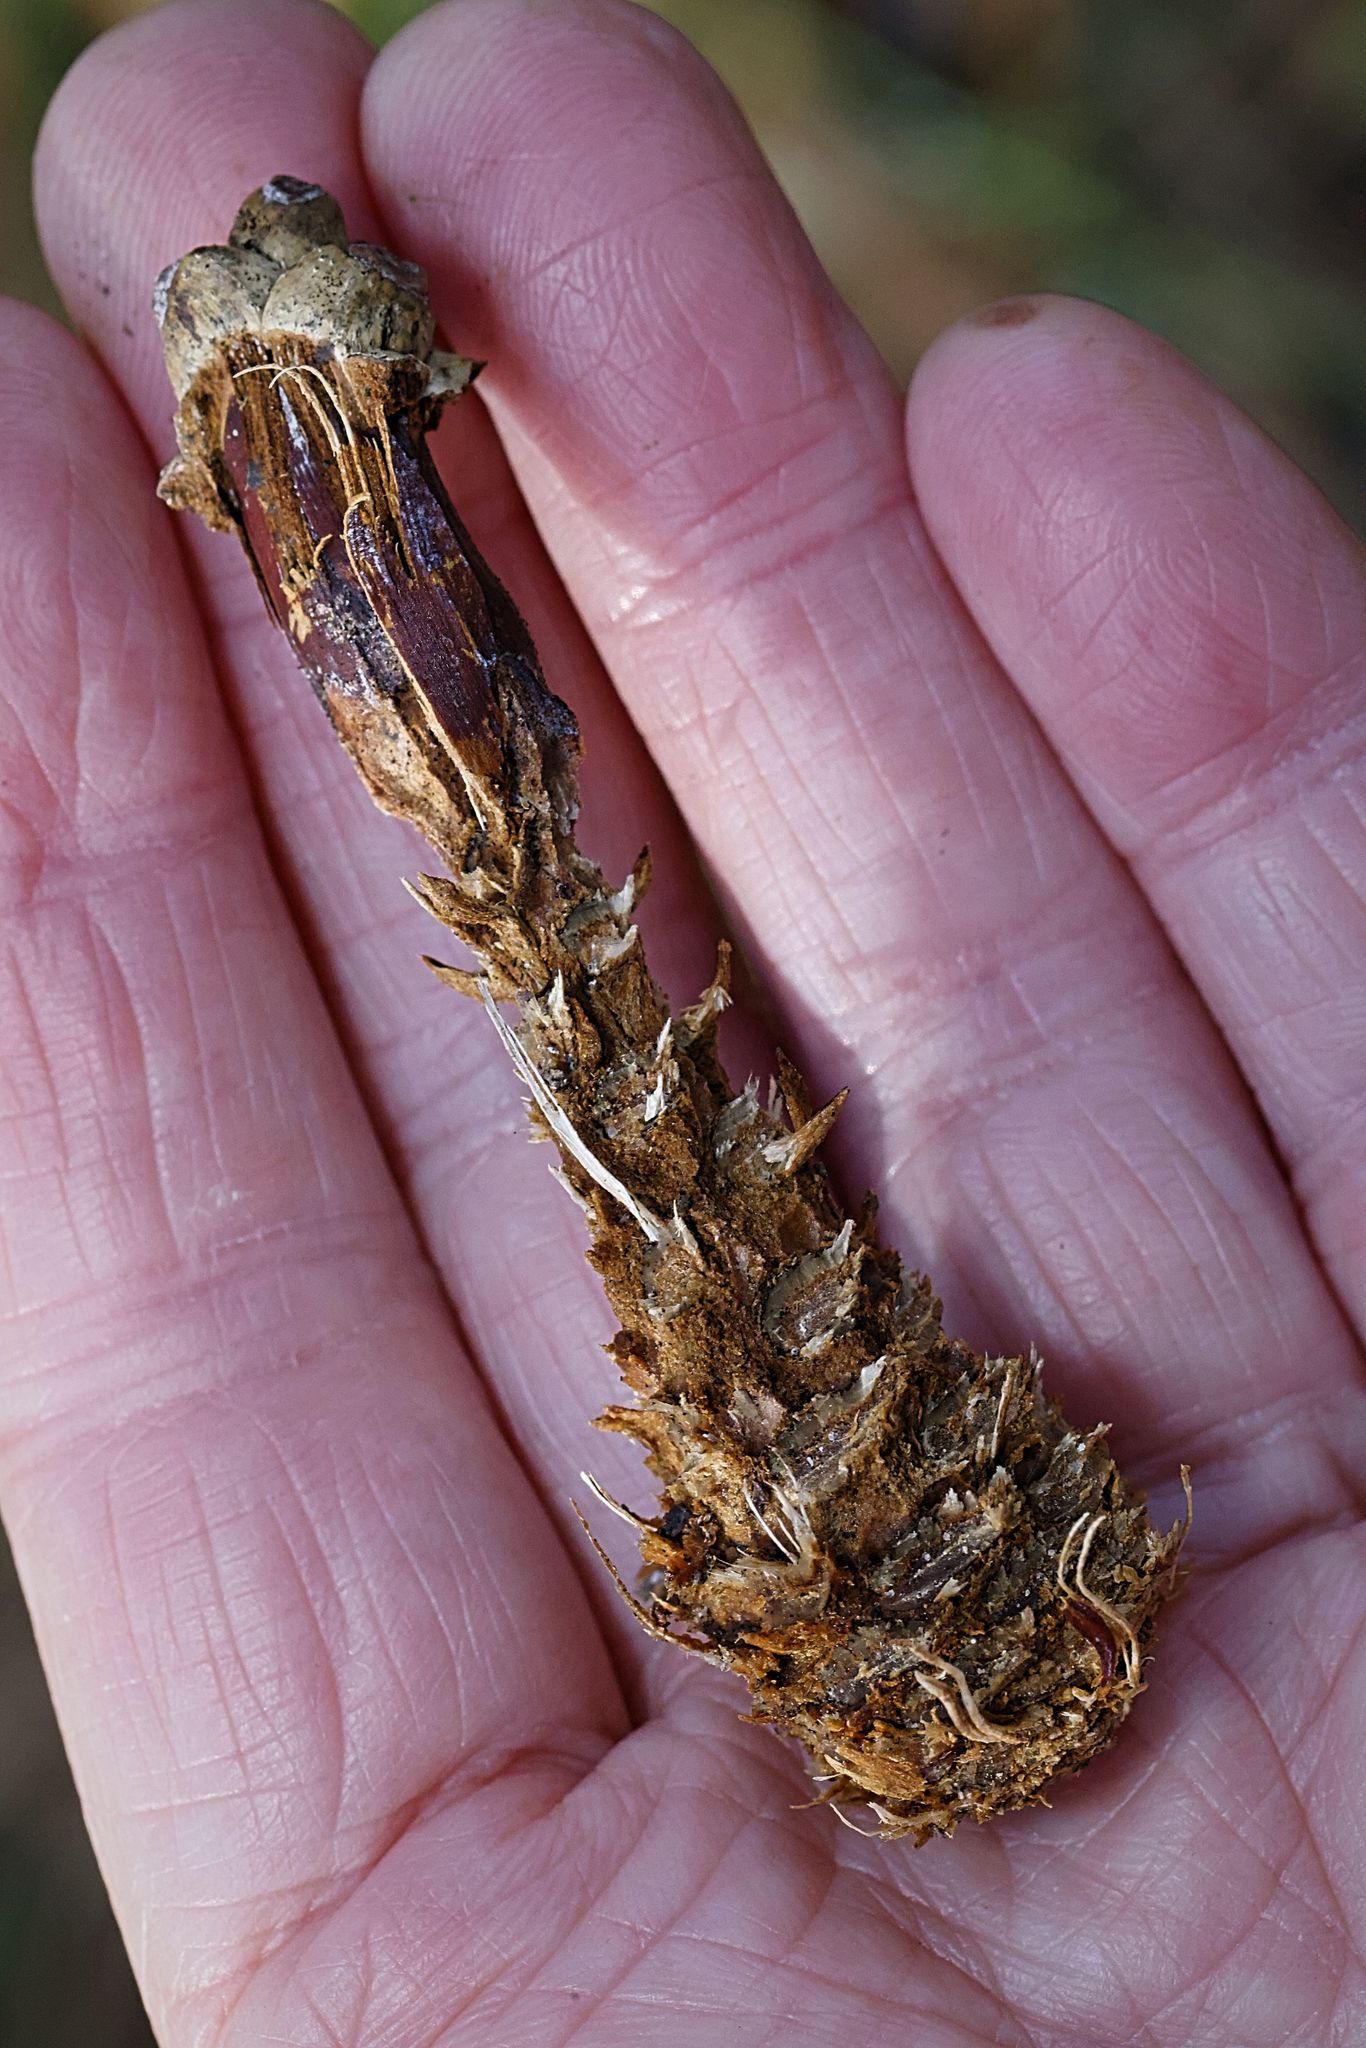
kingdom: Animalia
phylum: Chordata
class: Mammalia
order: Rodentia
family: Sciuridae
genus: Sciurus
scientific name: Sciurus carolinensis
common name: Eastern gray squirrel
